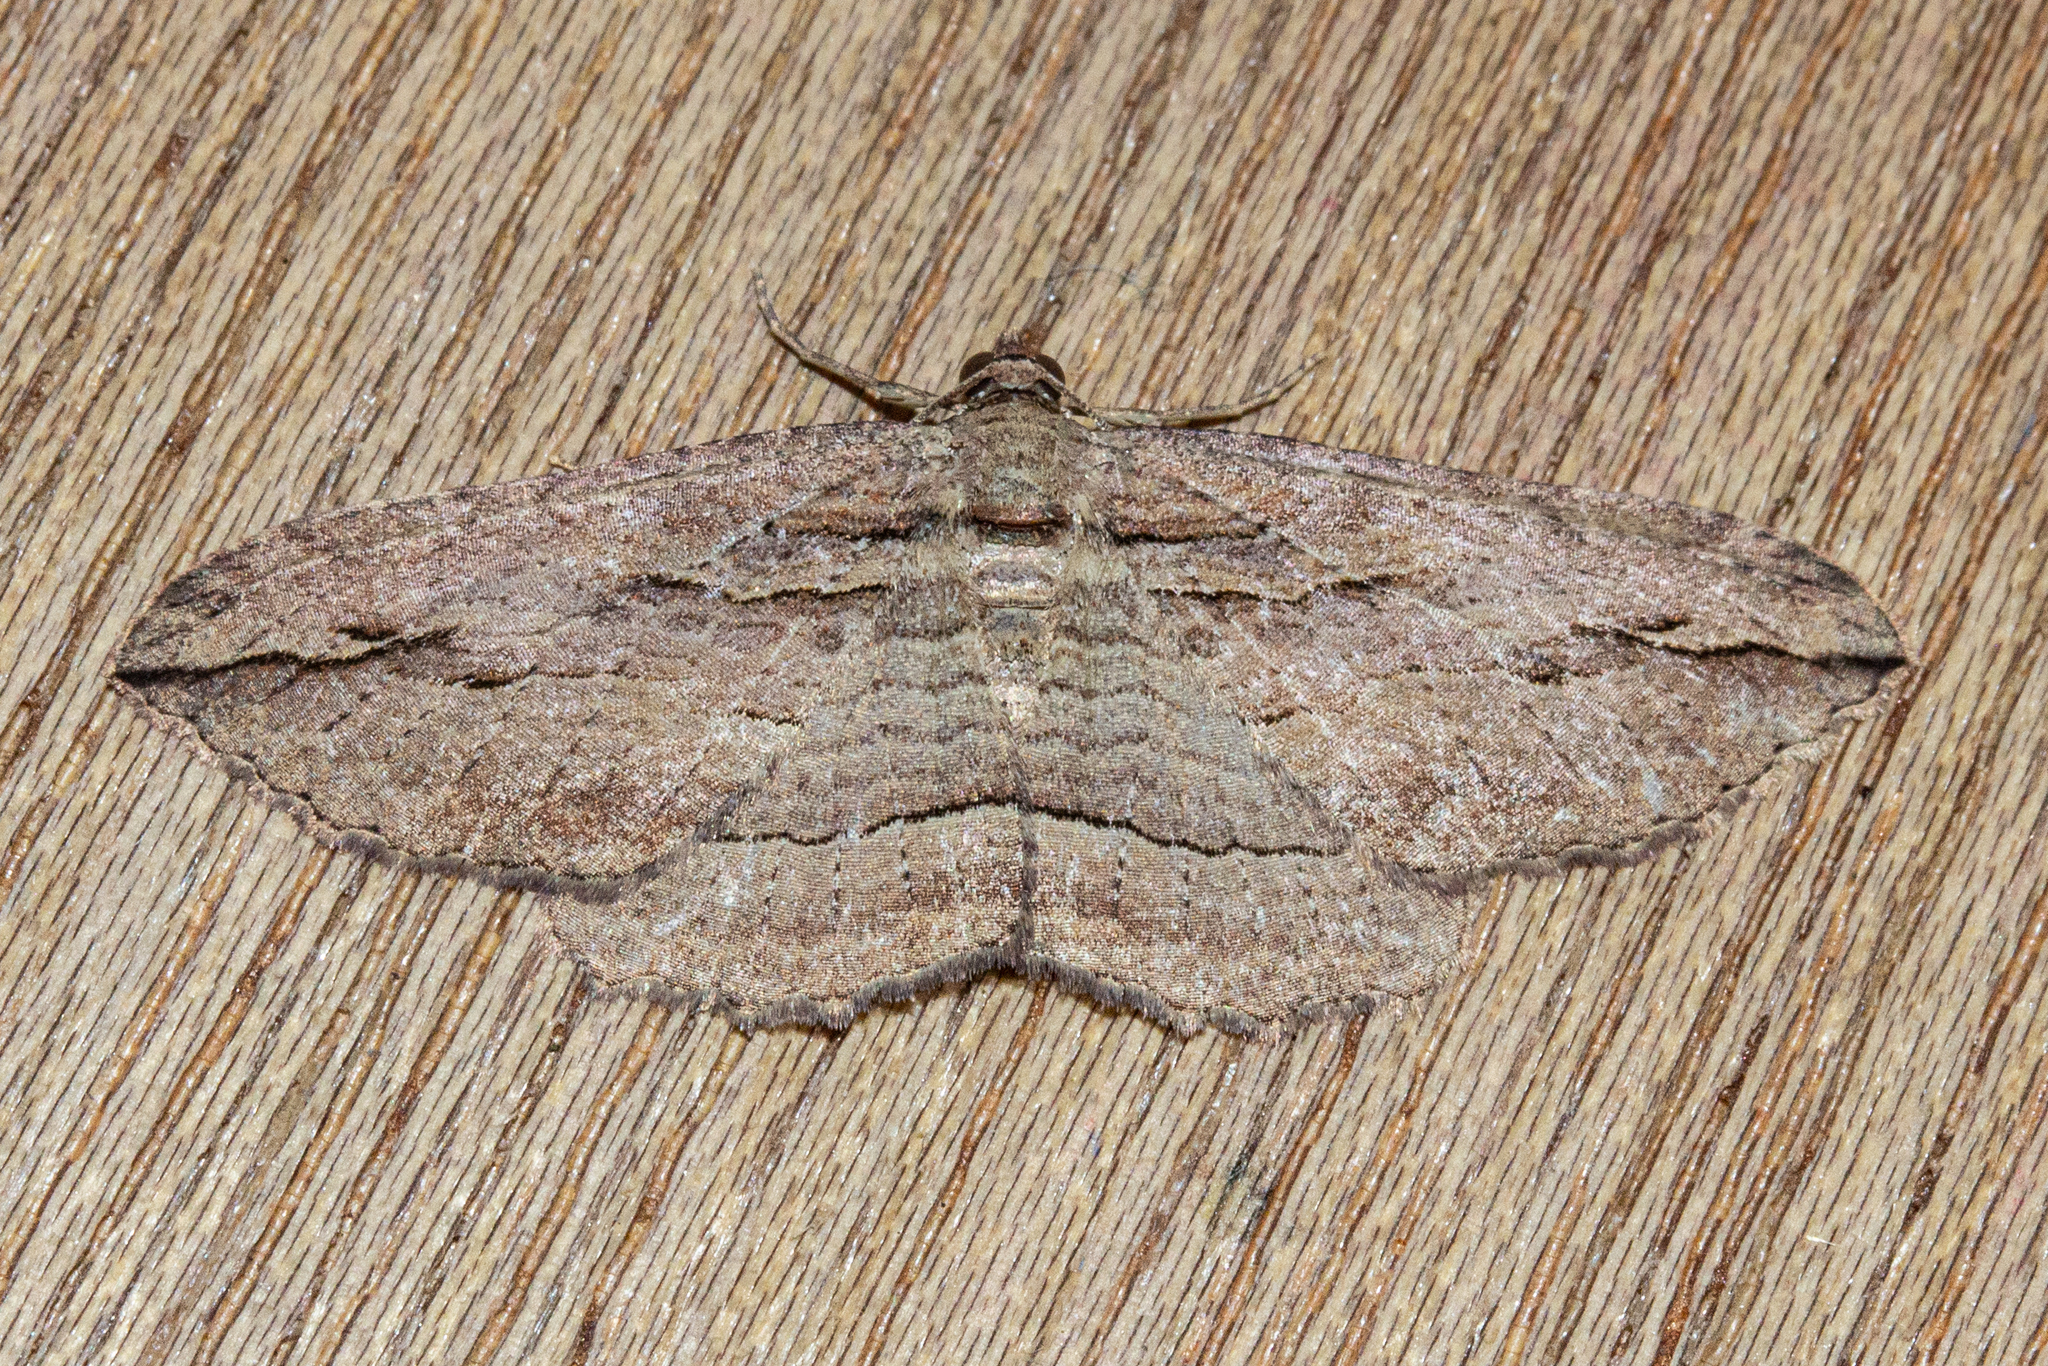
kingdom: Animalia
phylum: Arthropoda
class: Insecta
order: Lepidoptera
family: Geometridae
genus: Austrocidaria
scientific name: Austrocidaria gobiata
